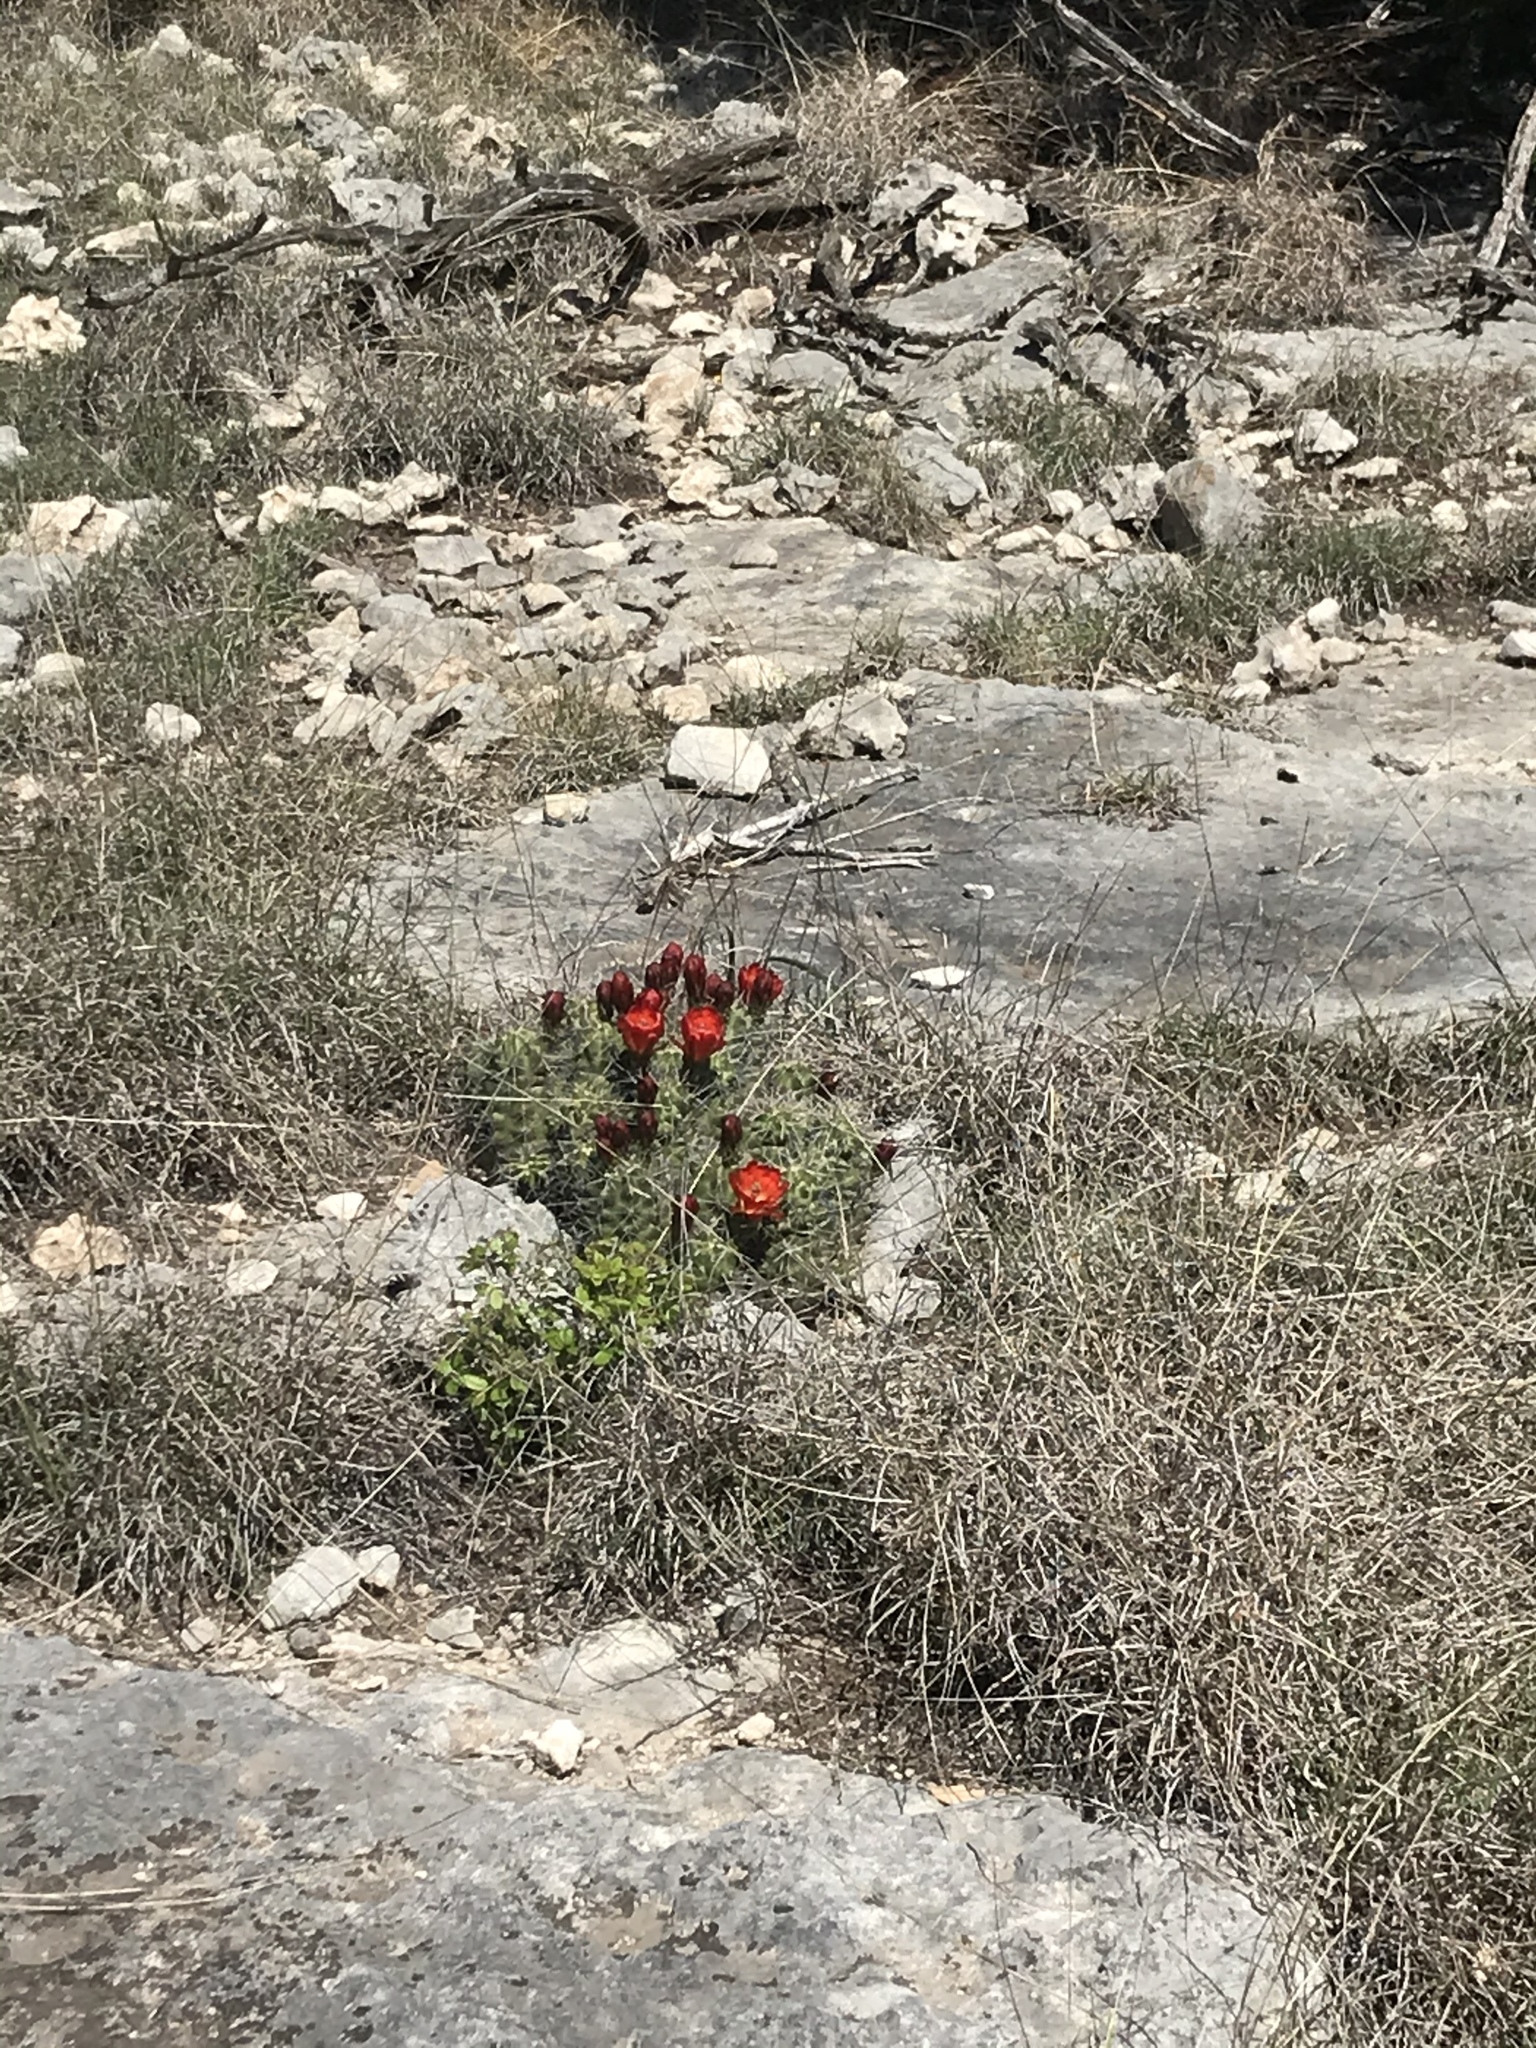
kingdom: Plantae
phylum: Tracheophyta
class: Magnoliopsida
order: Caryophyllales
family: Cactaceae
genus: Echinocereus
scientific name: Echinocereus coccineus
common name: Scarlet hedgehog cactus
